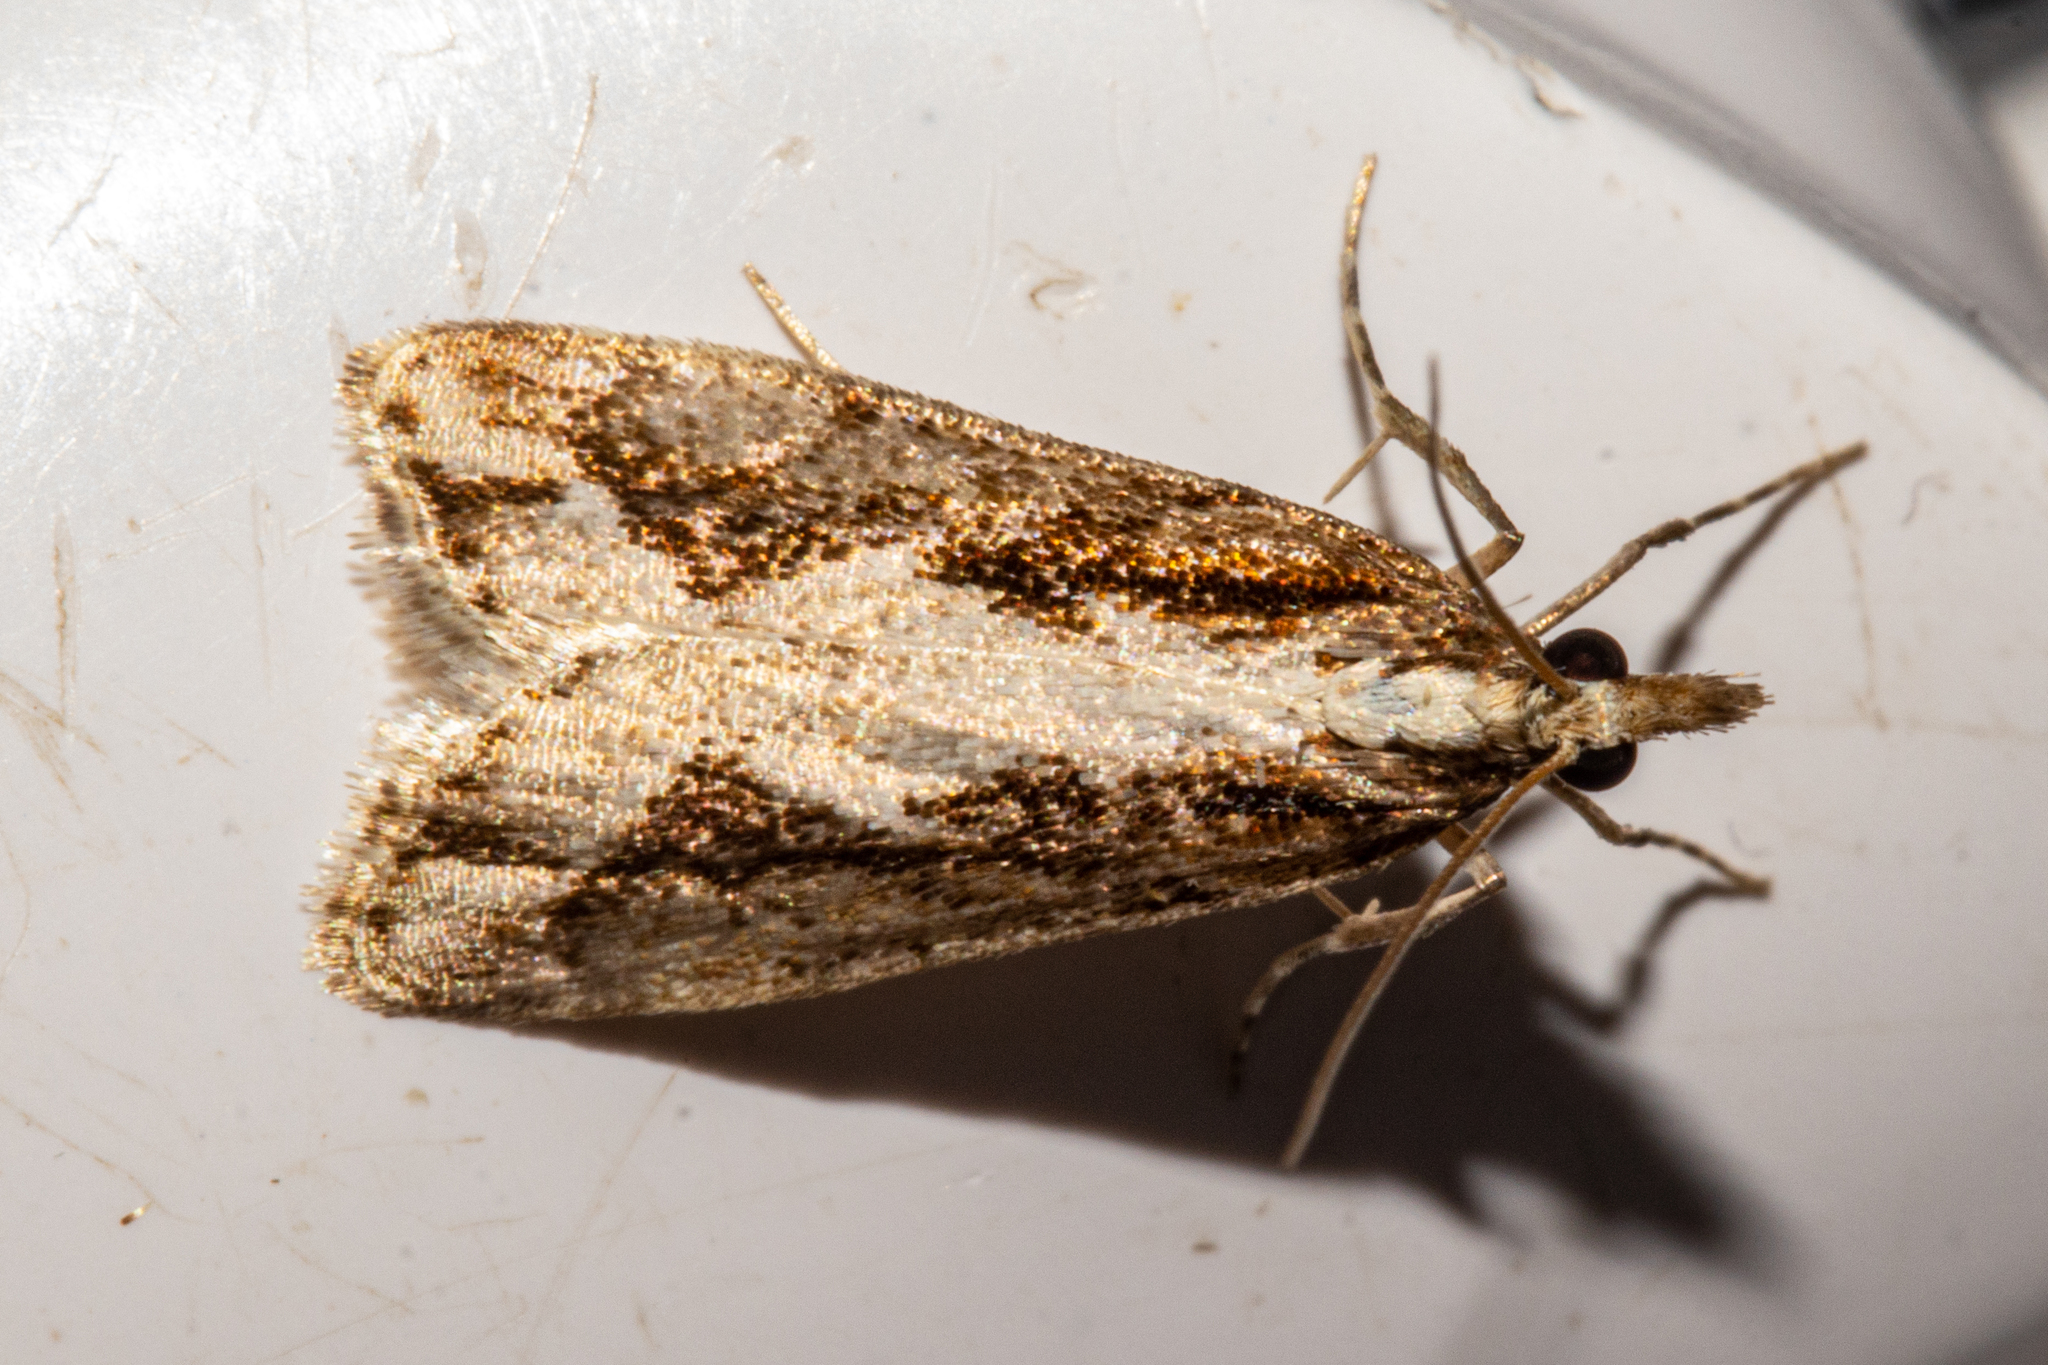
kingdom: Animalia
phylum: Arthropoda
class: Insecta
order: Lepidoptera
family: Crambidae
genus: Eudonia
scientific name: Eudonia steropaea
